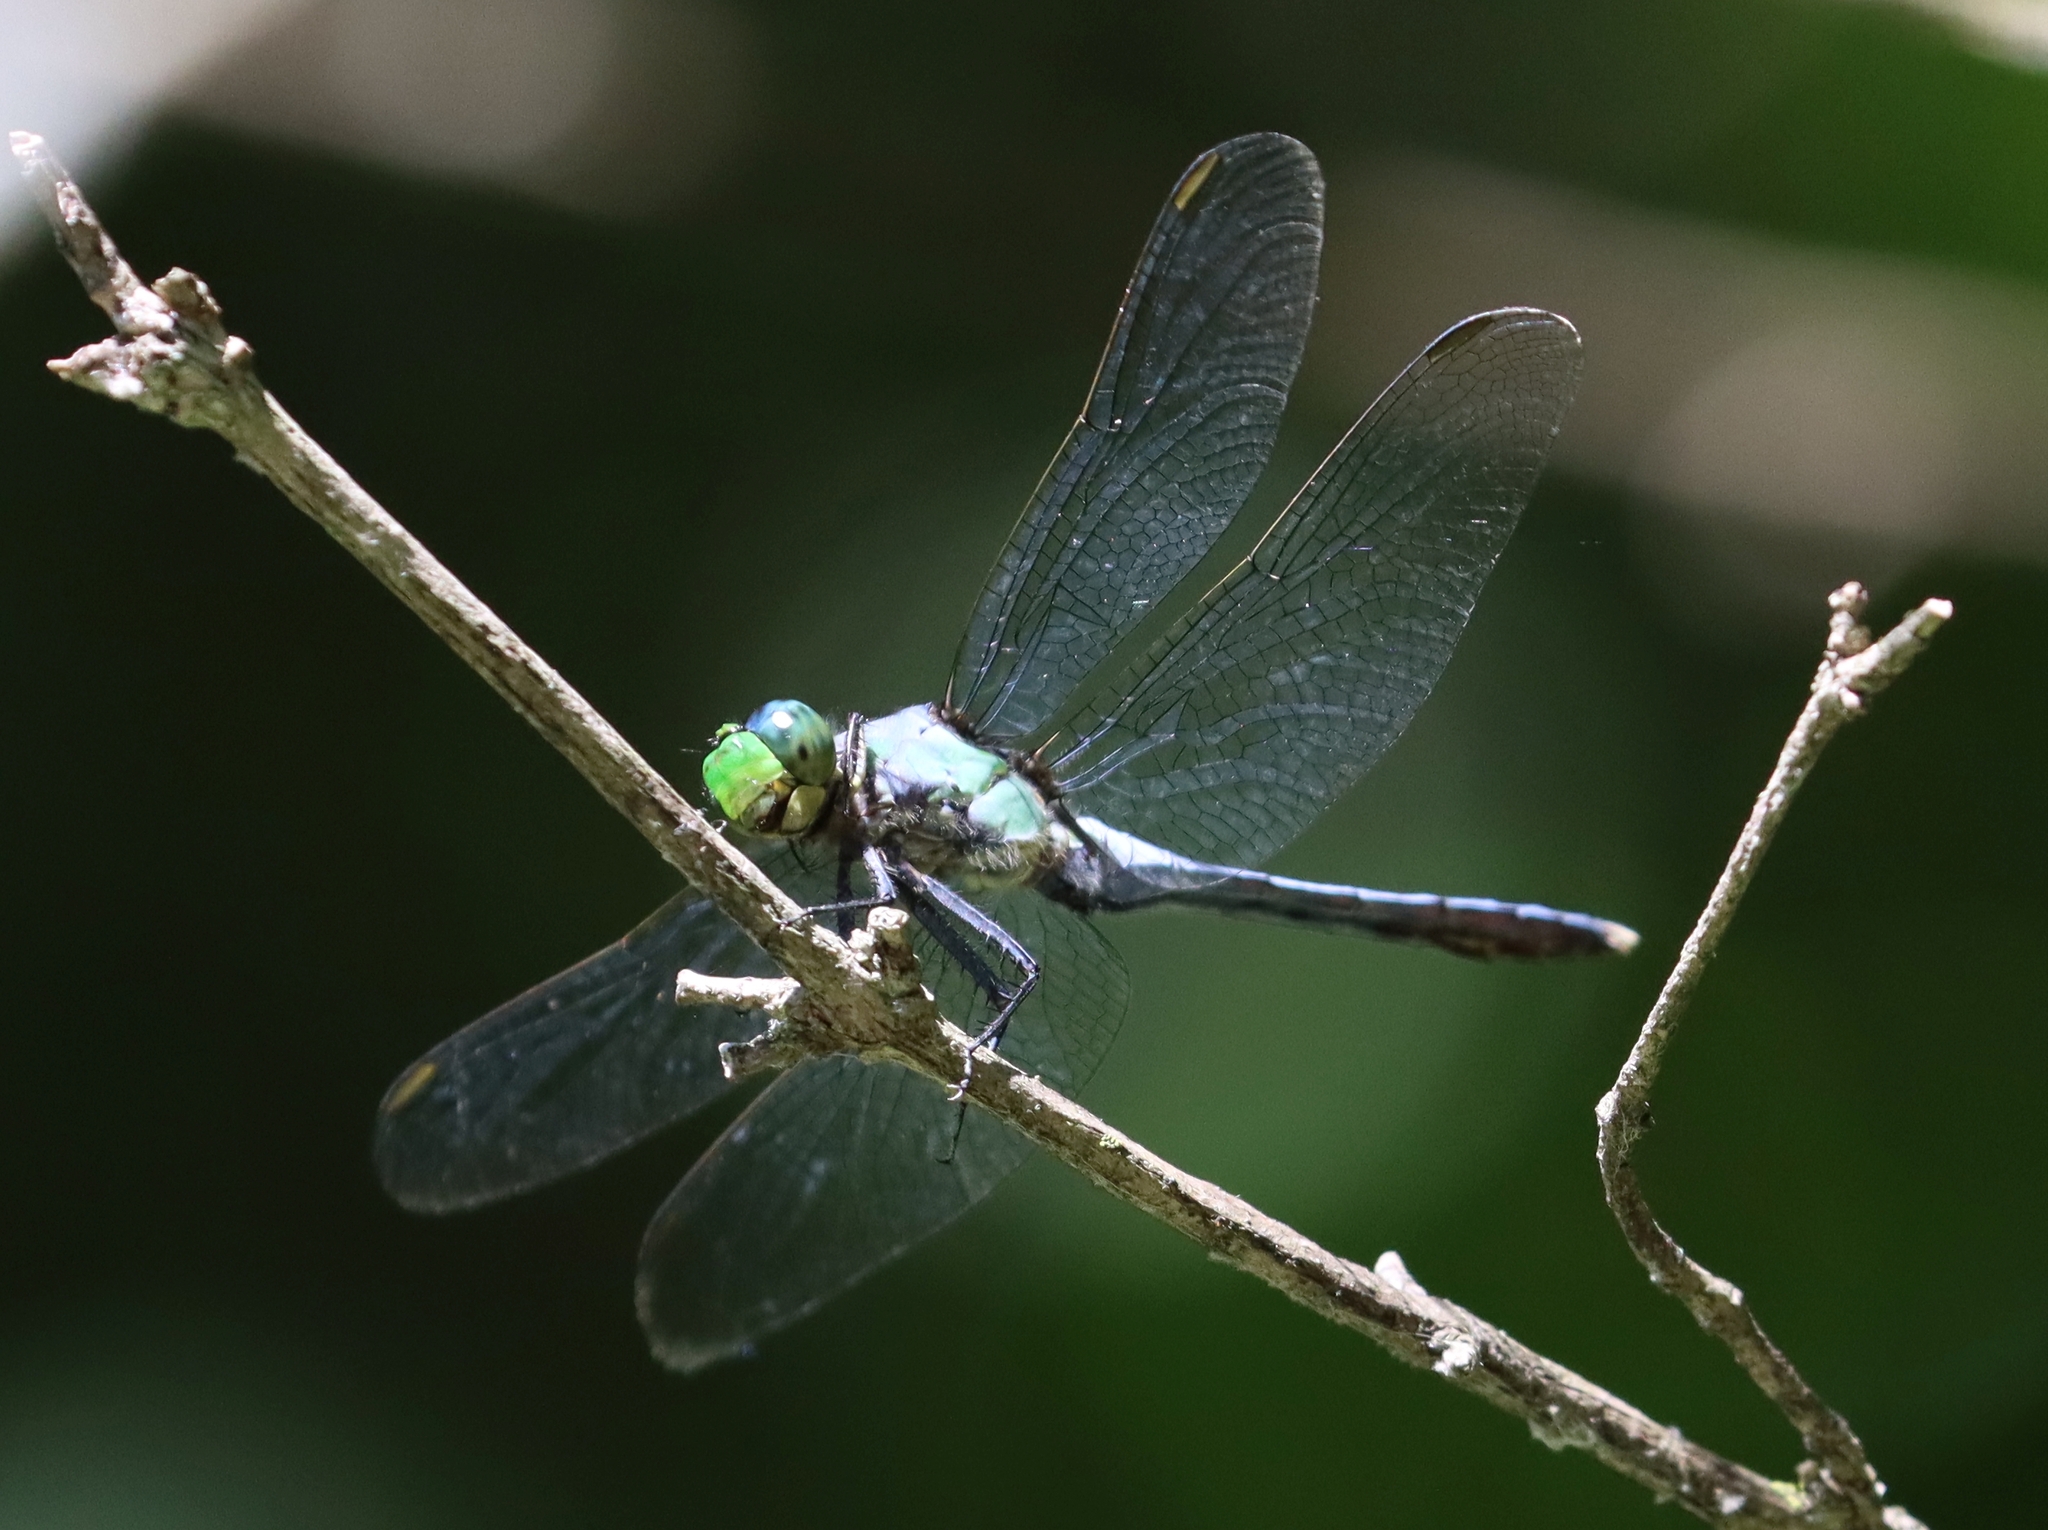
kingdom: Animalia
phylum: Arthropoda
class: Insecta
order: Odonata
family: Libellulidae
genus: Erythemis
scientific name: Erythemis simplicicollis
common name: Eastern pondhawk
